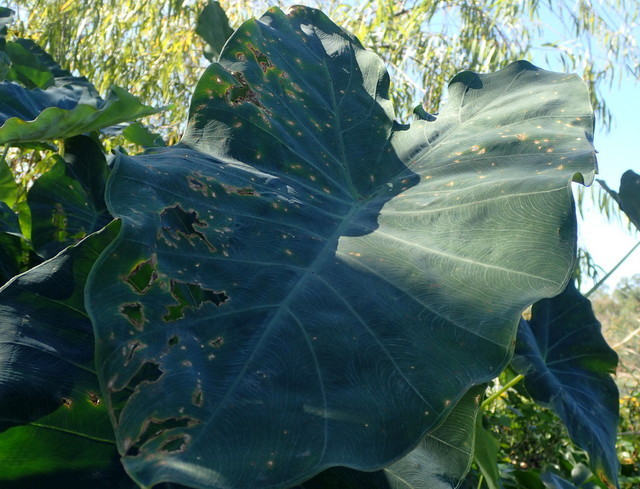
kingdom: Plantae
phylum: Tracheophyta
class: Liliopsida
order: Alismatales
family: Araceae
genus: Colocasia
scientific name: Colocasia esculenta
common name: Taro
